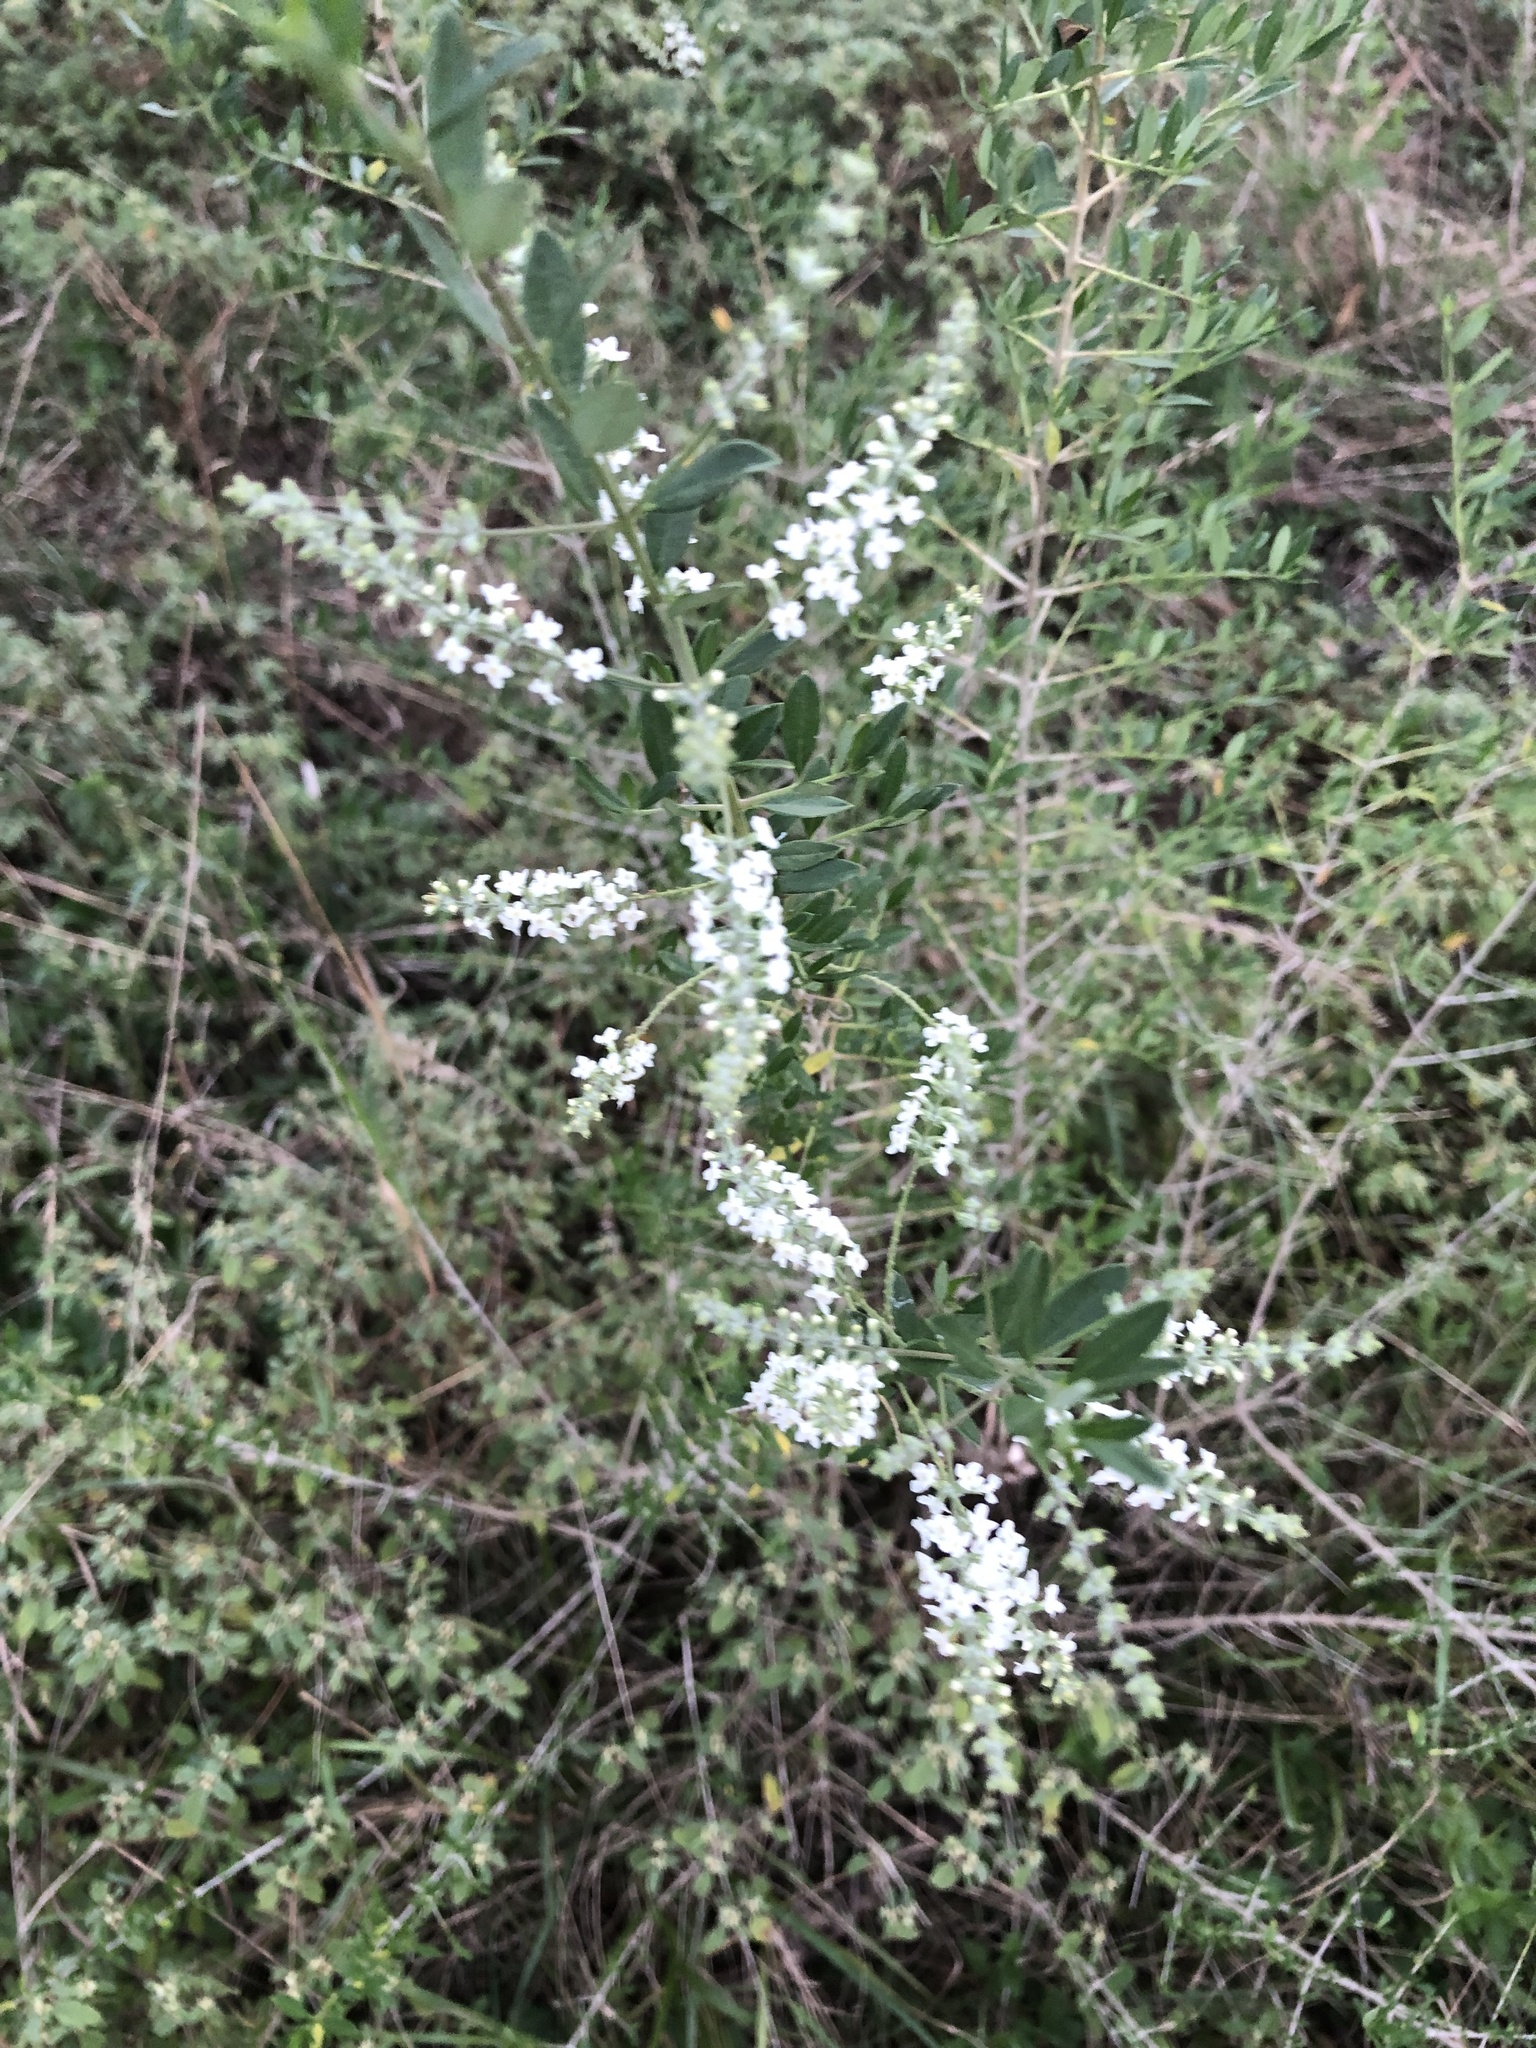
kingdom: Plantae
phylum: Tracheophyta
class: Magnoliopsida
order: Fabales
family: Fabaceae
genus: Eysenhardtia
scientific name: Eysenhardtia texana
